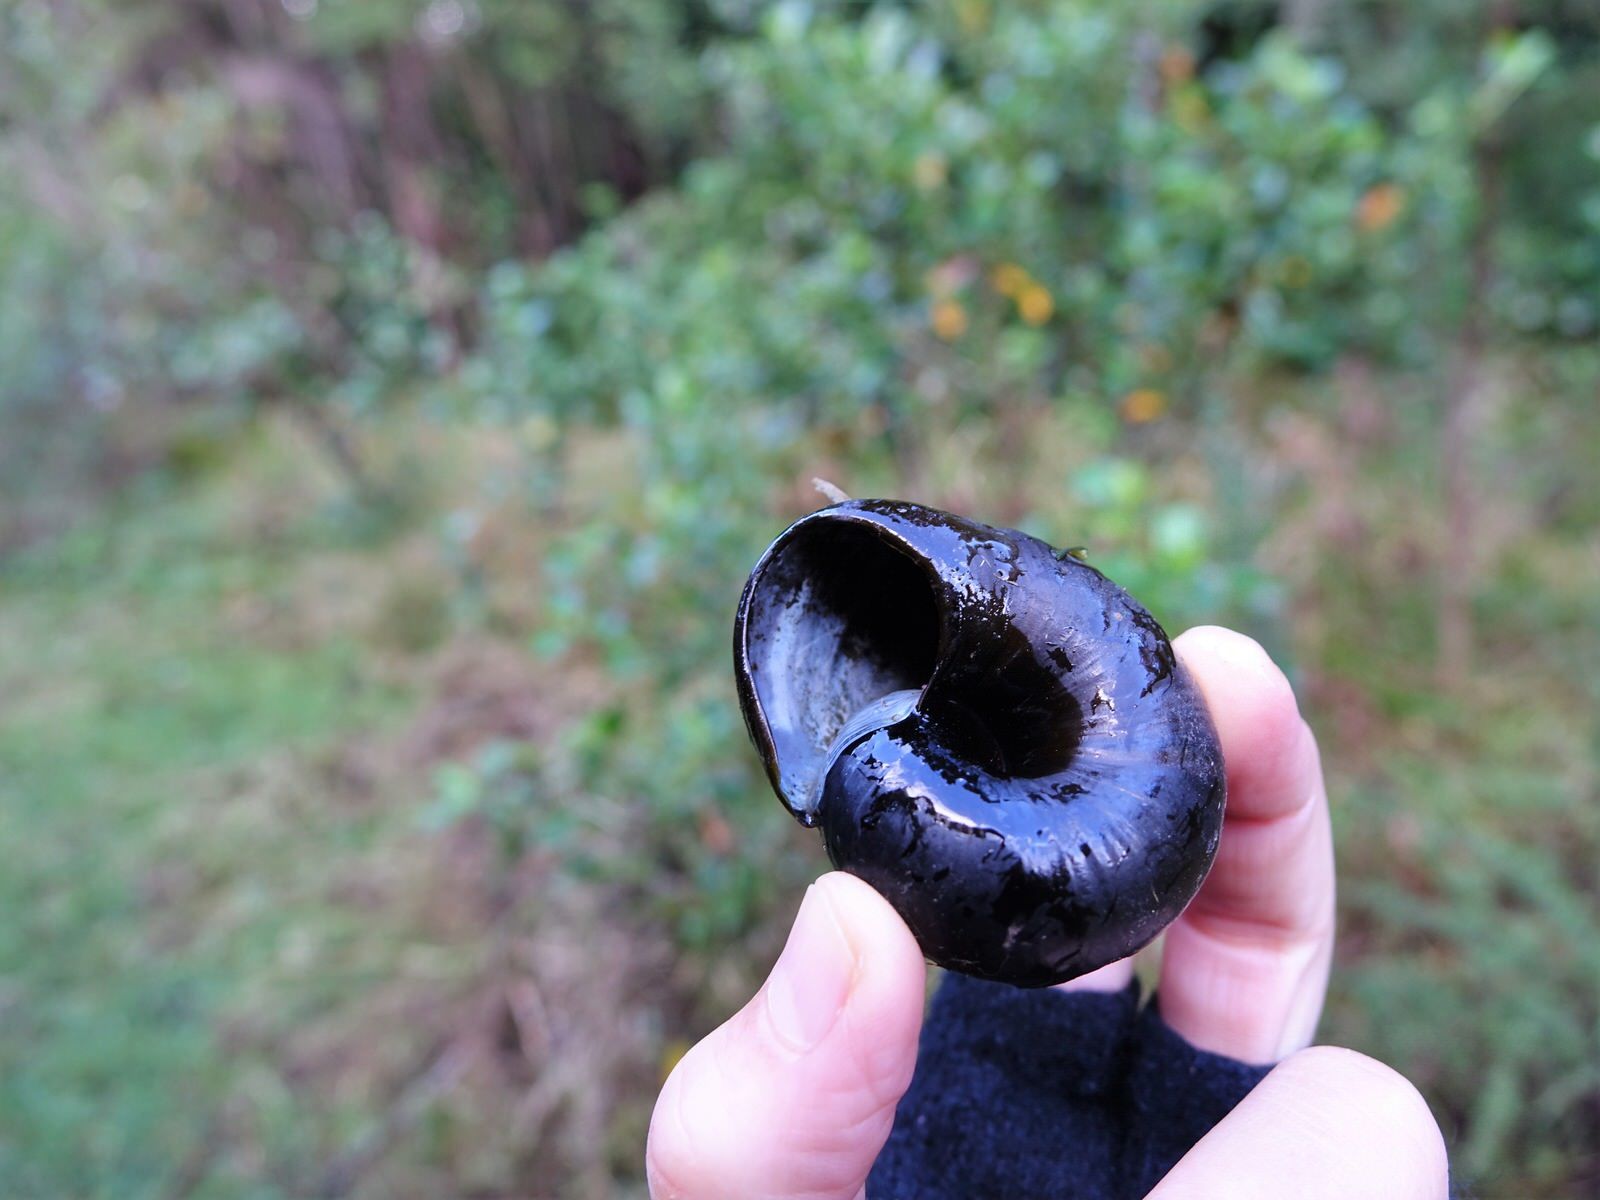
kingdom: Animalia
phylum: Mollusca
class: Gastropoda
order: Stylommatophora
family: Rhytididae
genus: Paryphanta
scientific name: Paryphanta busbyi
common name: Kauri snail
